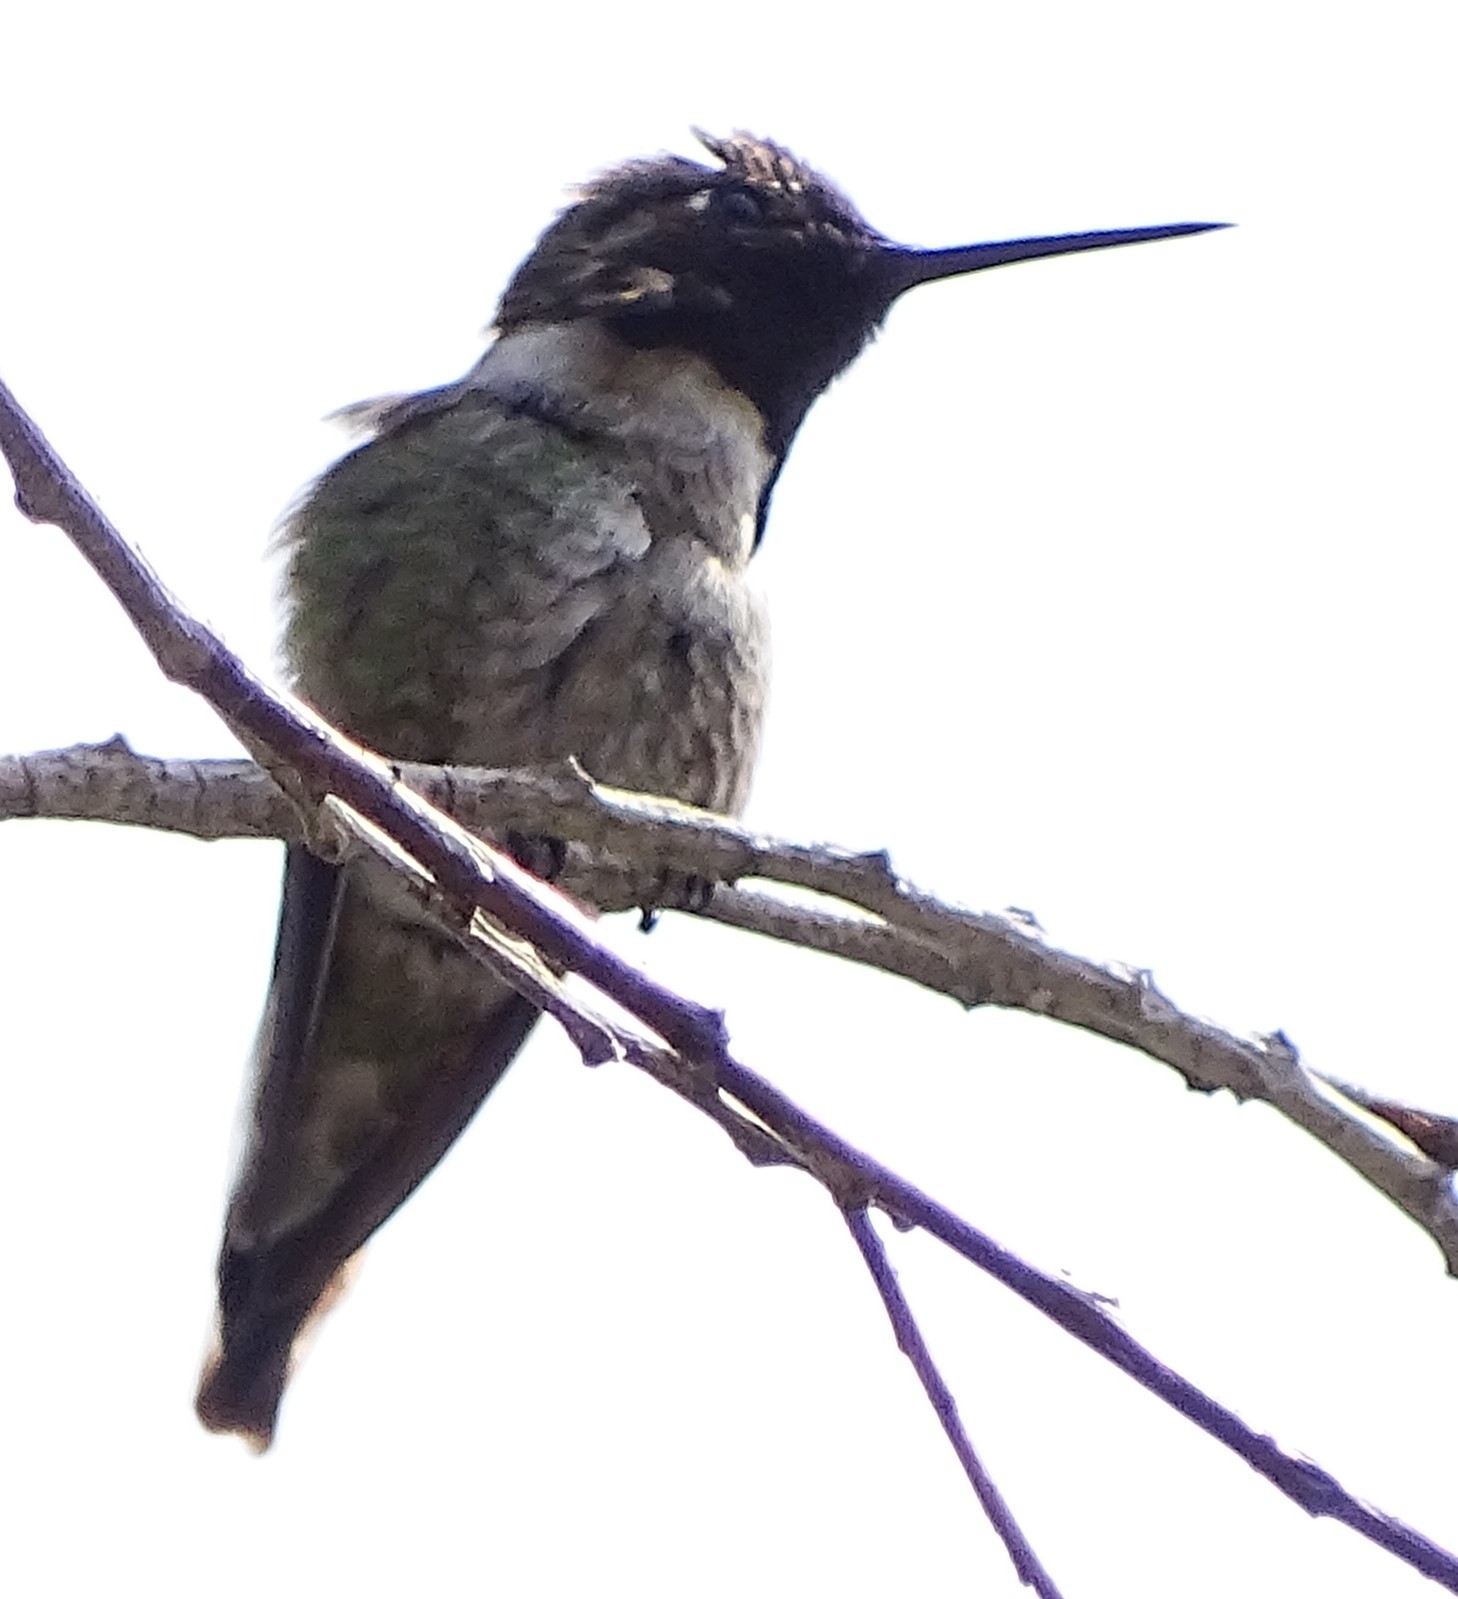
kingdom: Animalia
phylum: Chordata
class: Aves
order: Apodiformes
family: Trochilidae
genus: Calypte
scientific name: Calypte anna
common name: Anna's hummingbird
